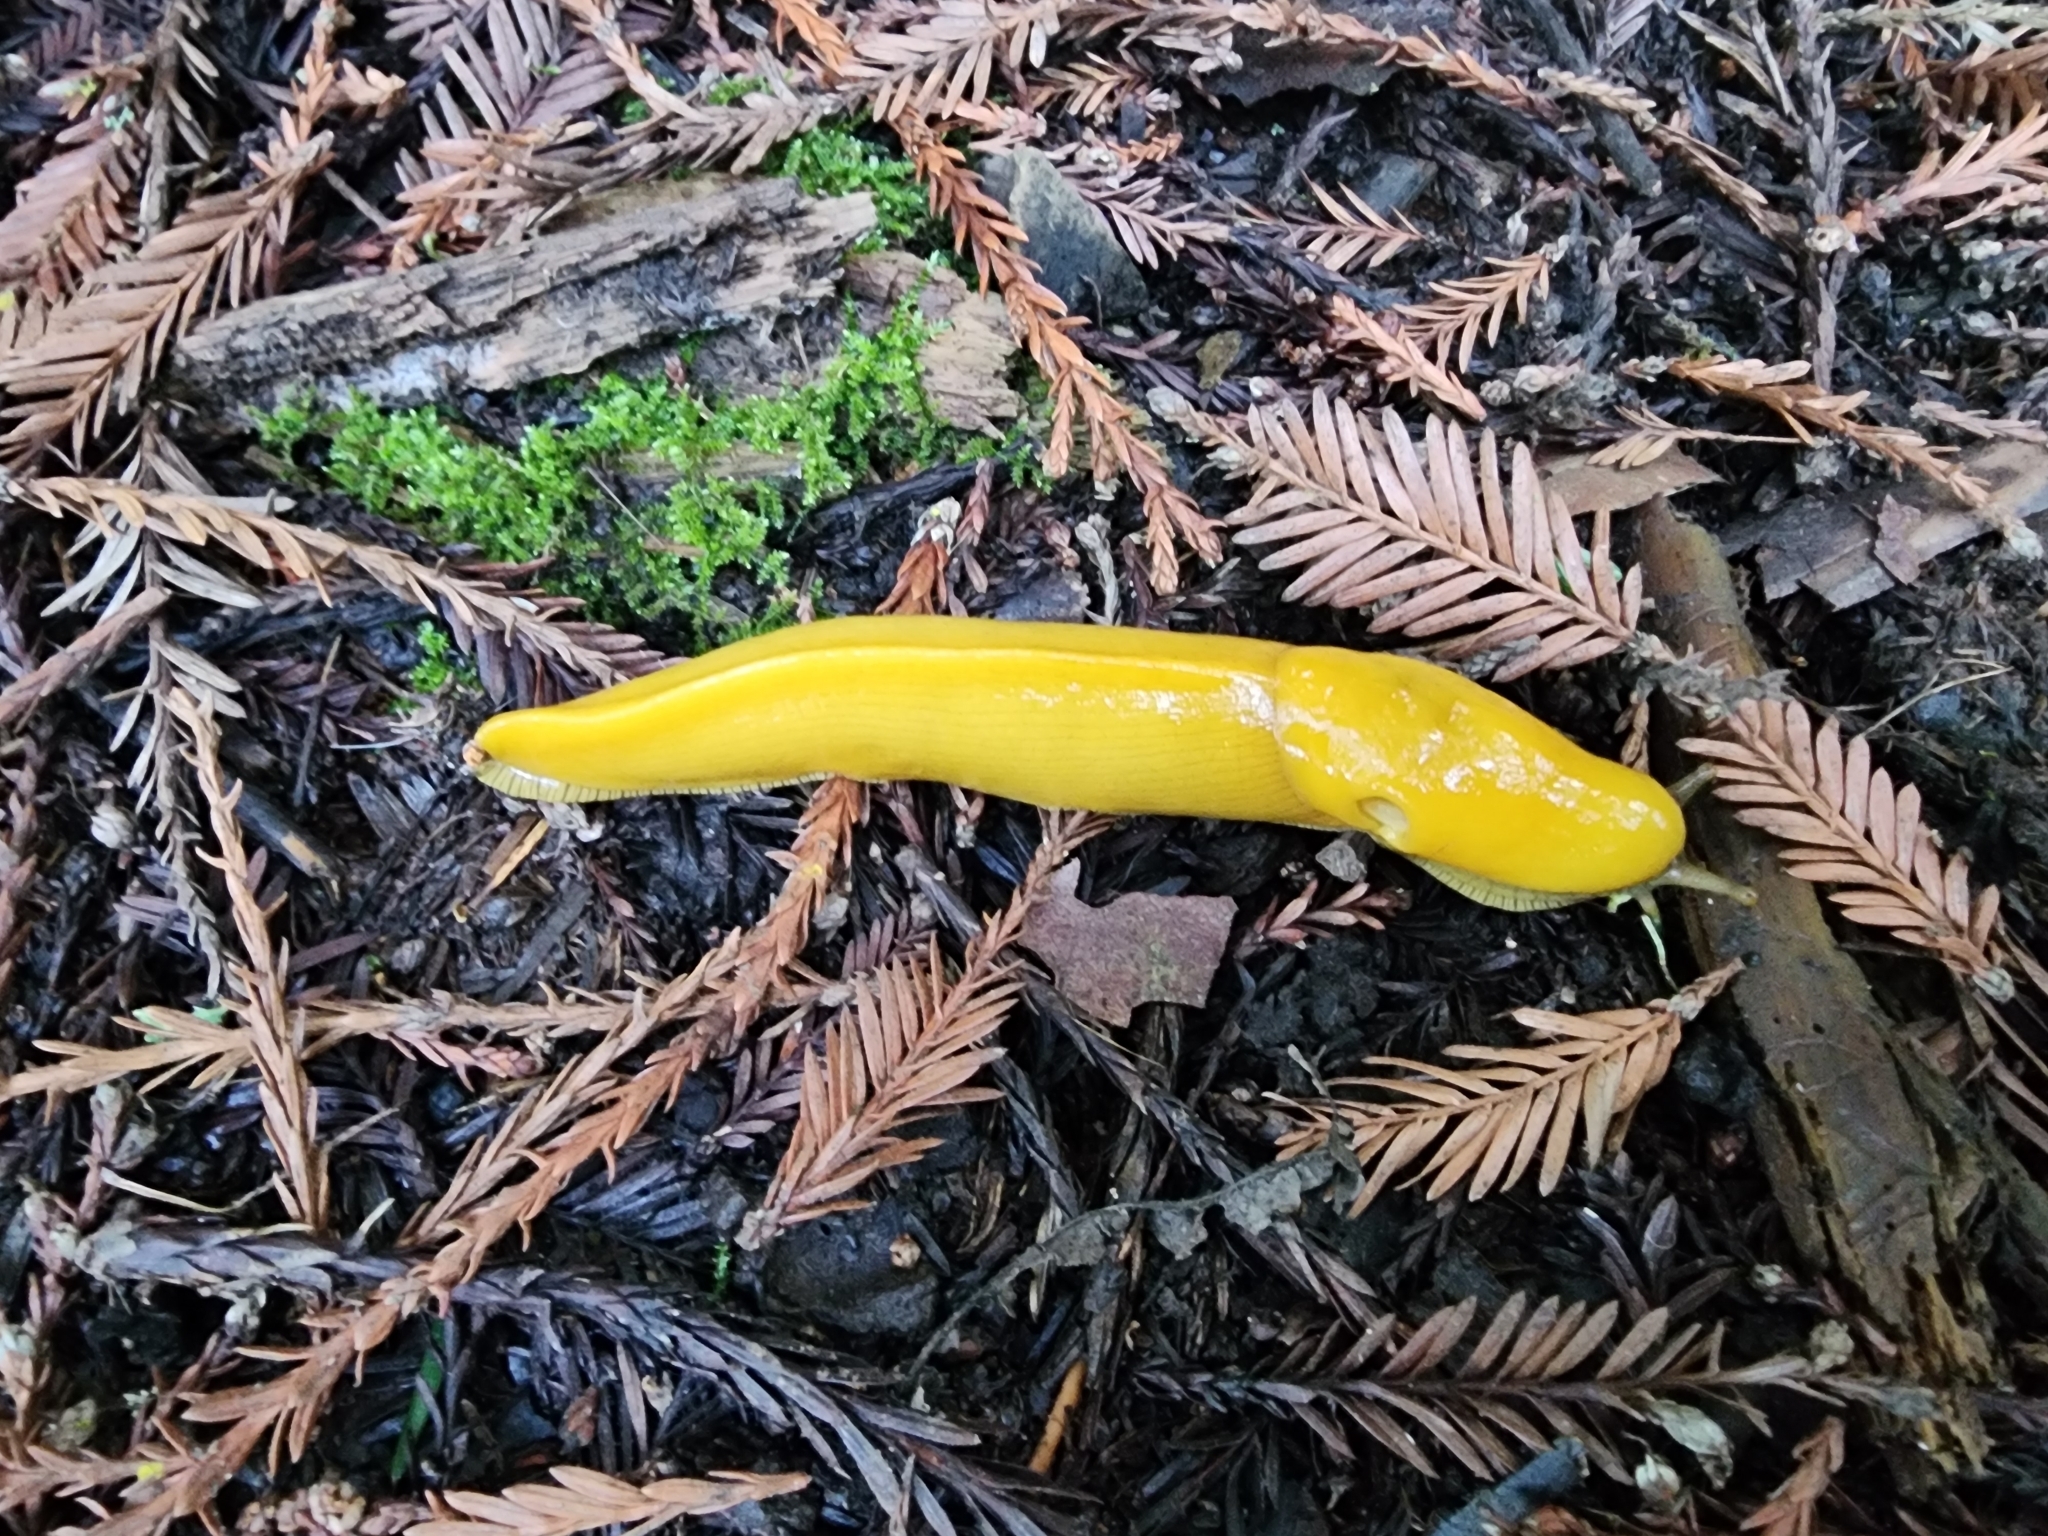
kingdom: Animalia
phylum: Mollusca
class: Gastropoda
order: Stylommatophora
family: Ariolimacidae
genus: Ariolimax
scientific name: Ariolimax buttoni
